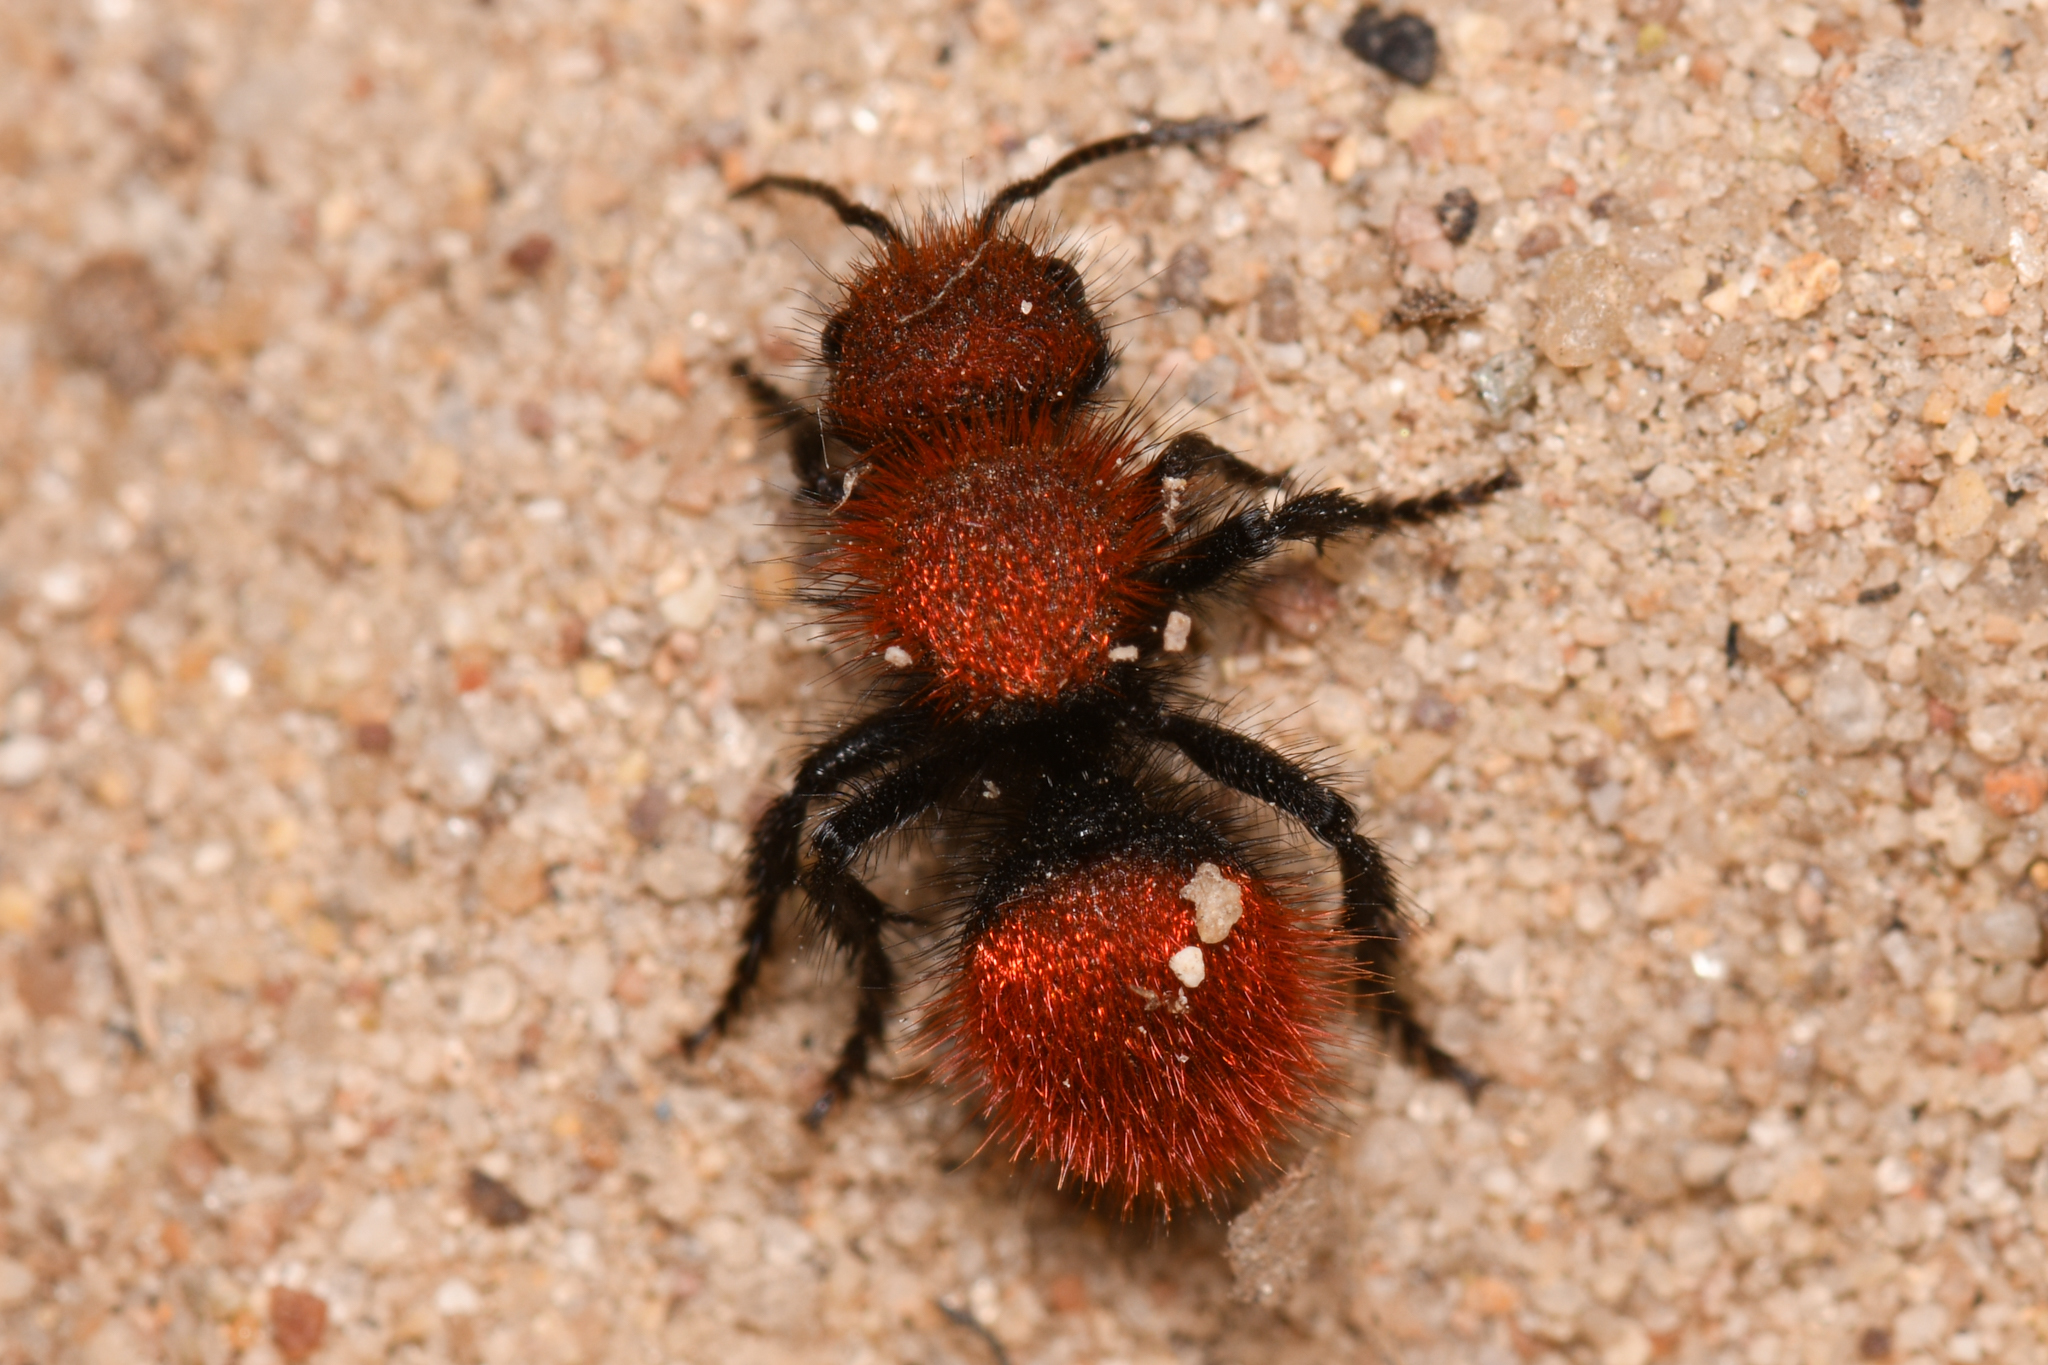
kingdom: Animalia
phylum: Arthropoda
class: Insecta
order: Hymenoptera
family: Mutillidae
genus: Dasymutilla
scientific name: Dasymutilla
